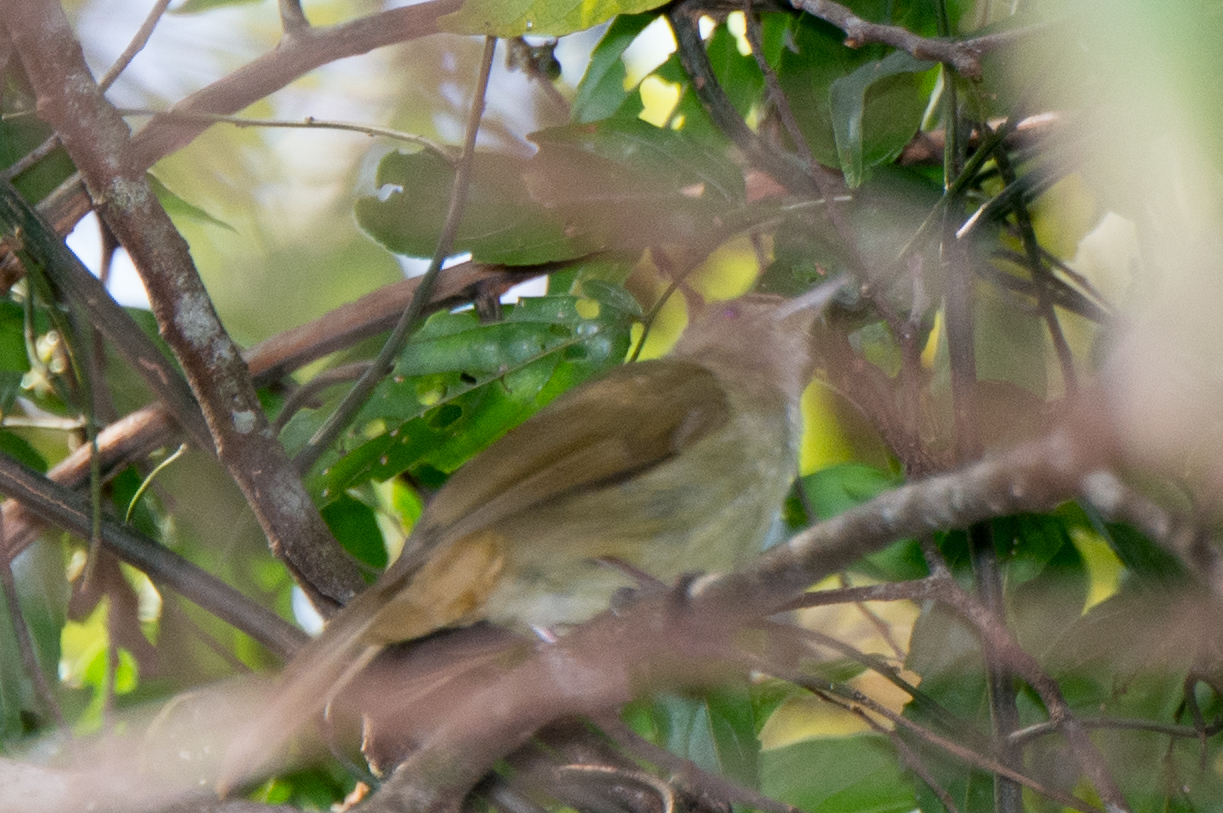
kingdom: Animalia
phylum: Chordata
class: Aves
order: Passeriformes
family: Pycnonotidae
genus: Iole
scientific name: Iole propinqua
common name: Grey-eyed bulbul
